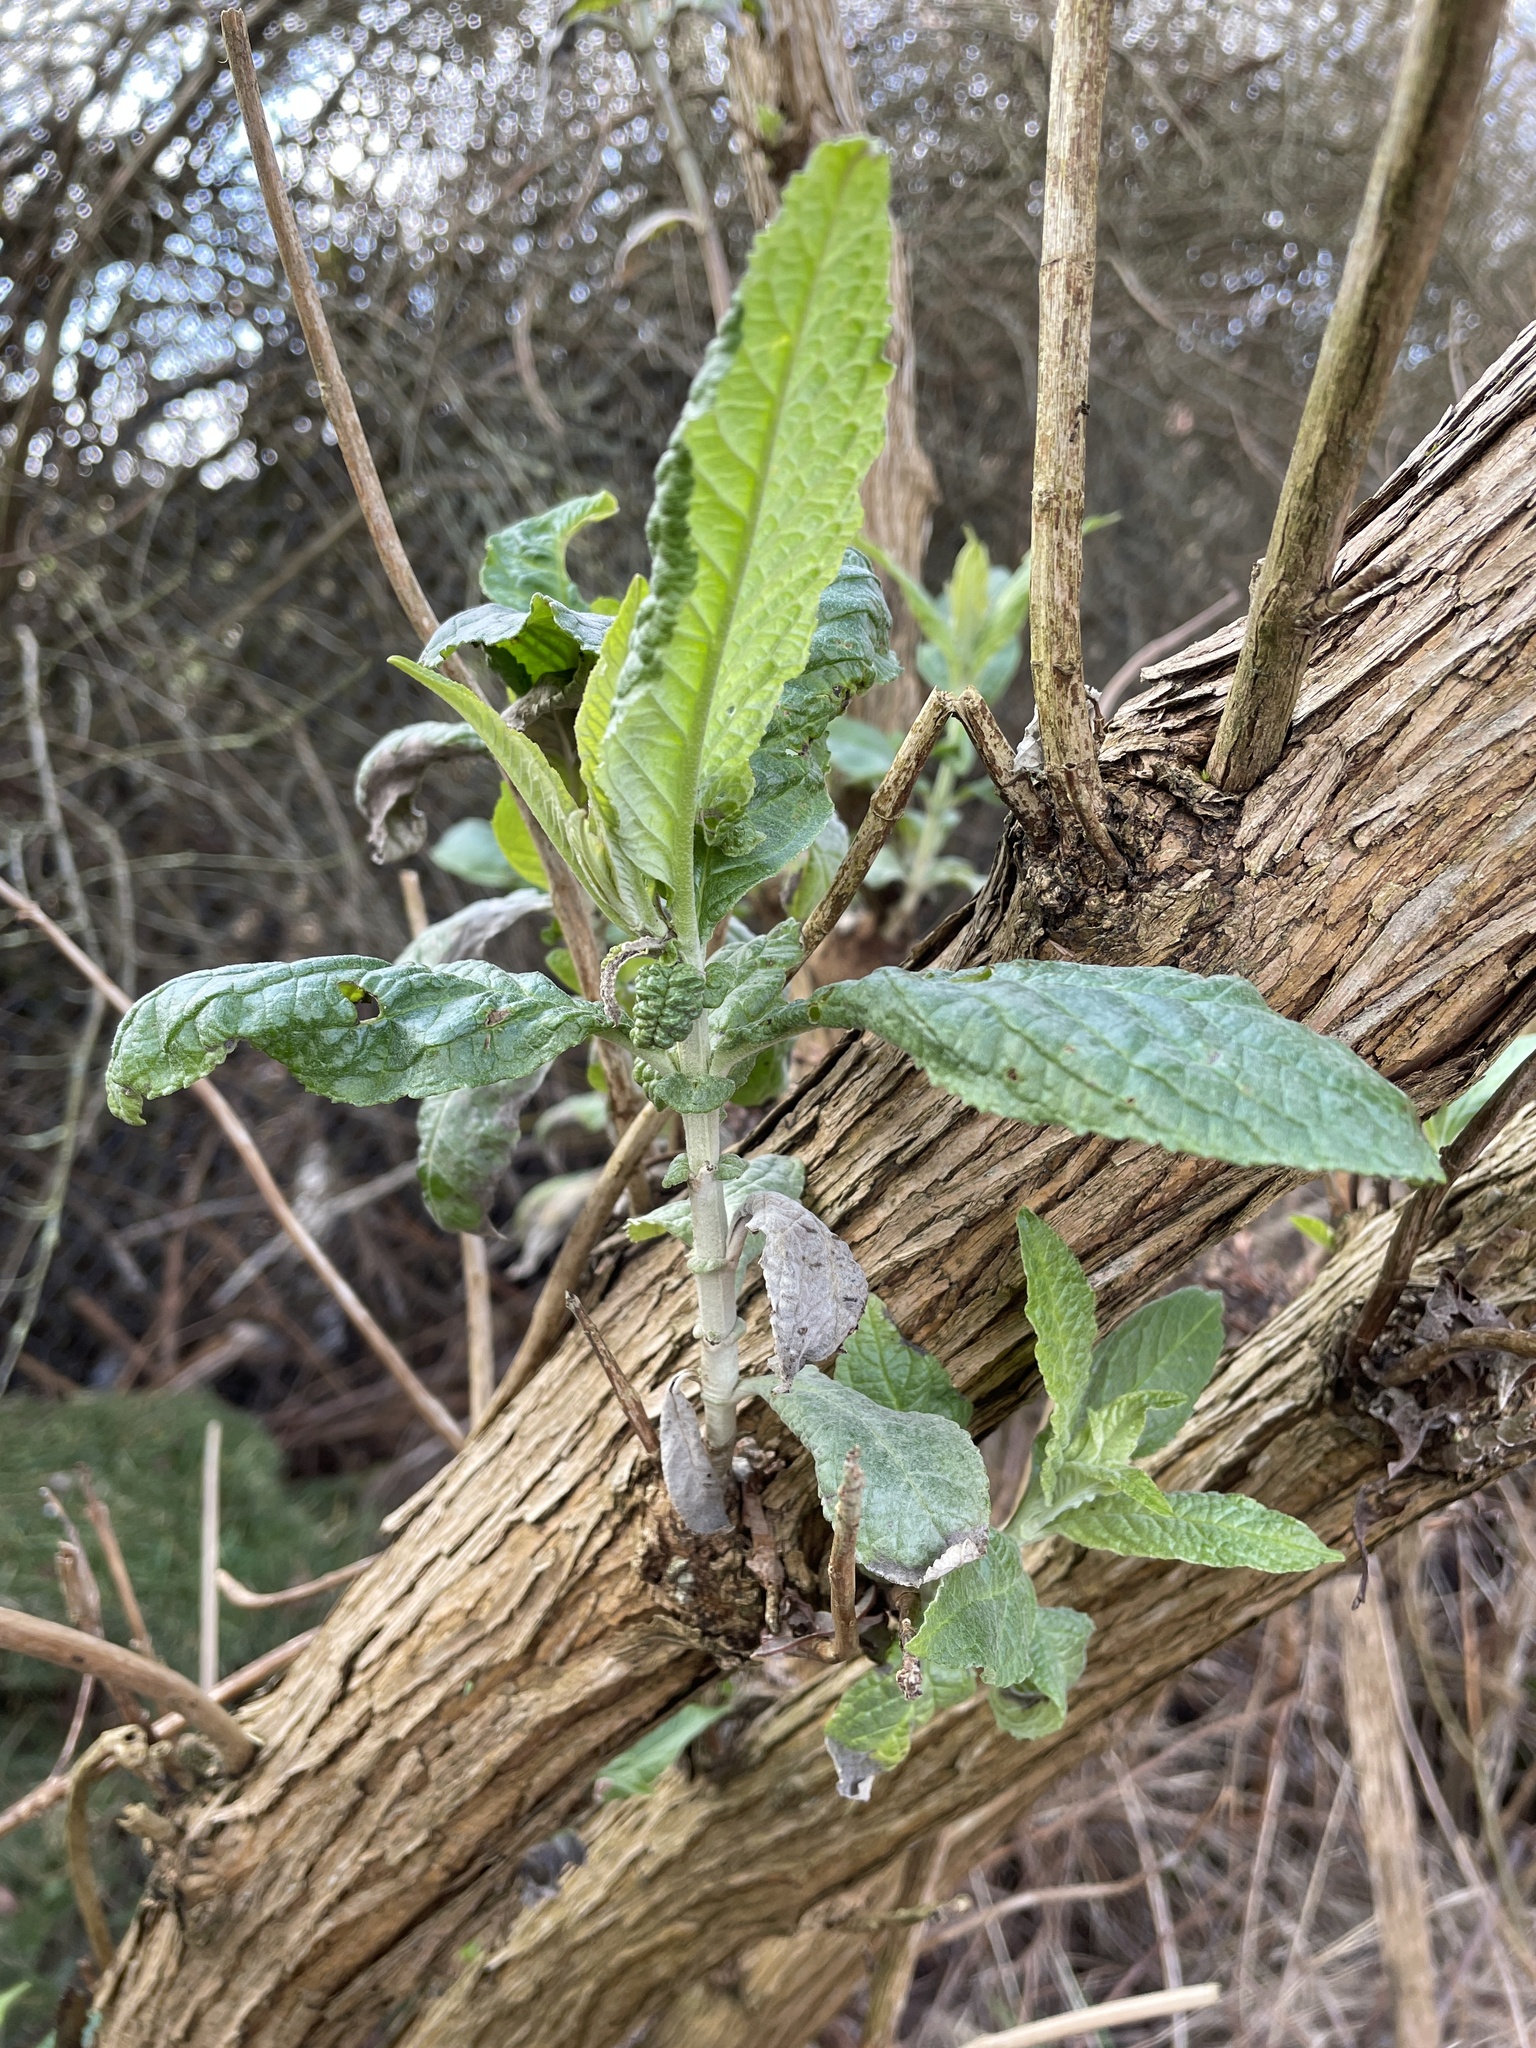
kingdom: Plantae
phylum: Tracheophyta
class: Magnoliopsida
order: Lamiales
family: Scrophulariaceae
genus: Buddleja
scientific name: Buddleja davidii
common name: Butterfly-bush
